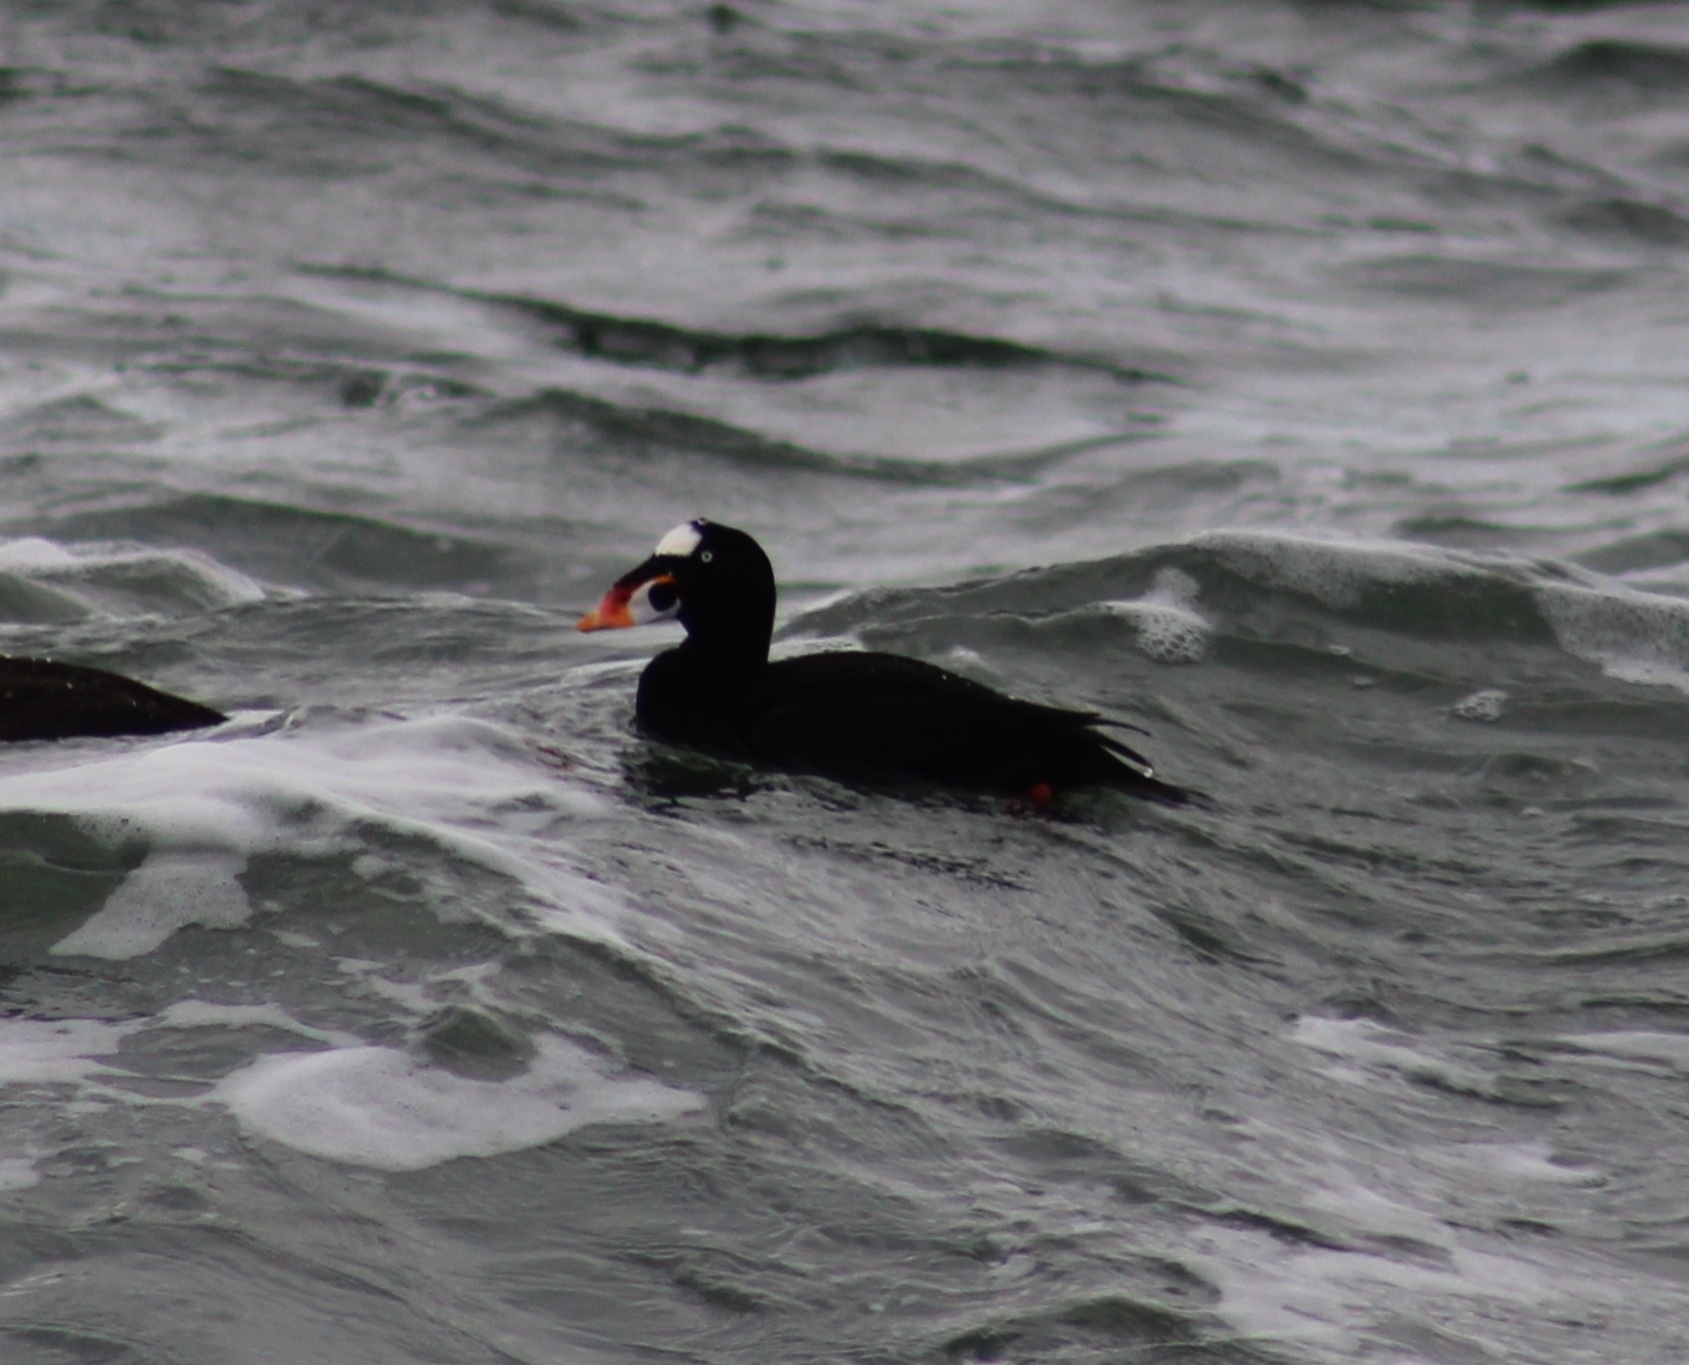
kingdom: Animalia
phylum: Chordata
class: Aves
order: Anseriformes
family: Anatidae
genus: Melanitta
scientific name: Melanitta perspicillata
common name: Surf scoter
